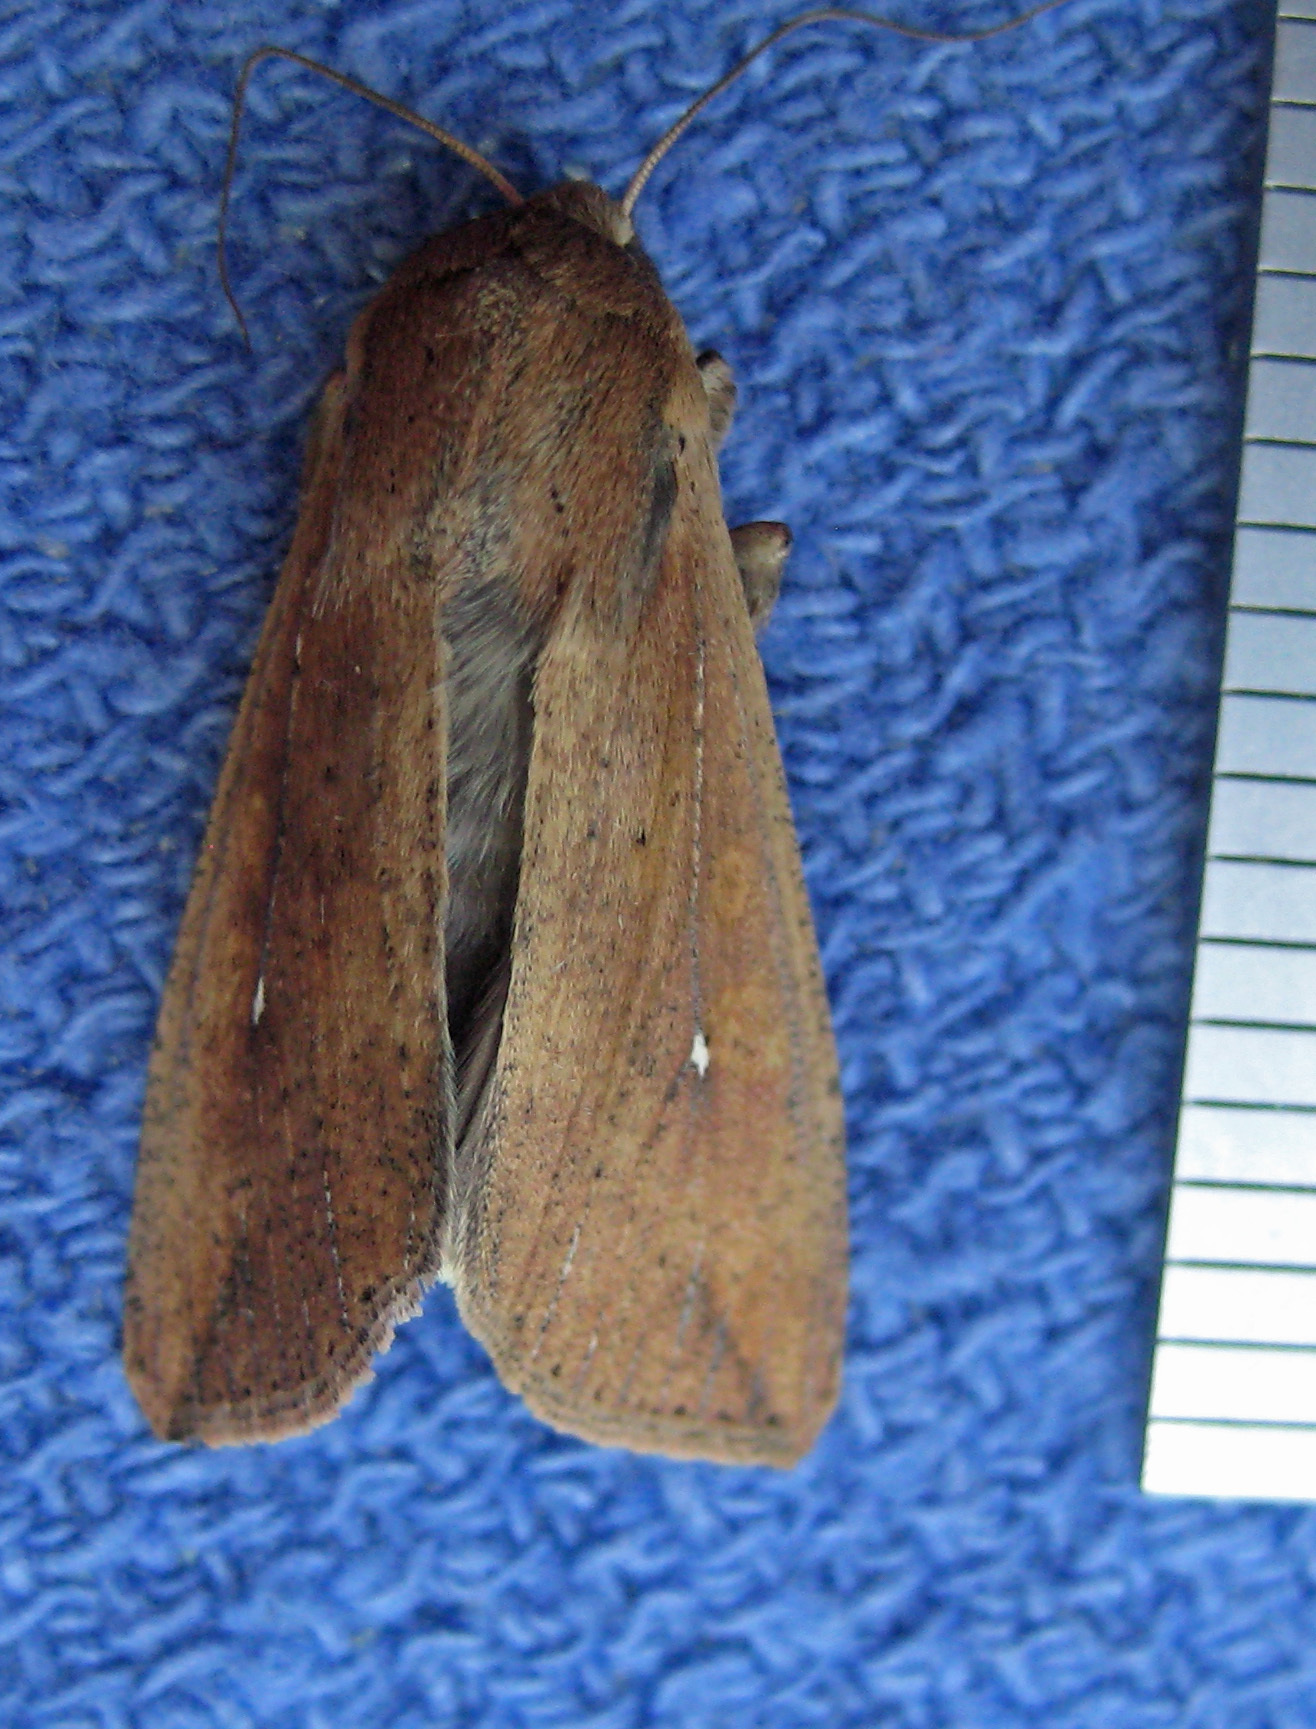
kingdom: Animalia
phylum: Arthropoda
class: Insecta
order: Lepidoptera
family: Noctuidae
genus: Mythimna
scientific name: Mythimna unipuncta
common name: White-speck
